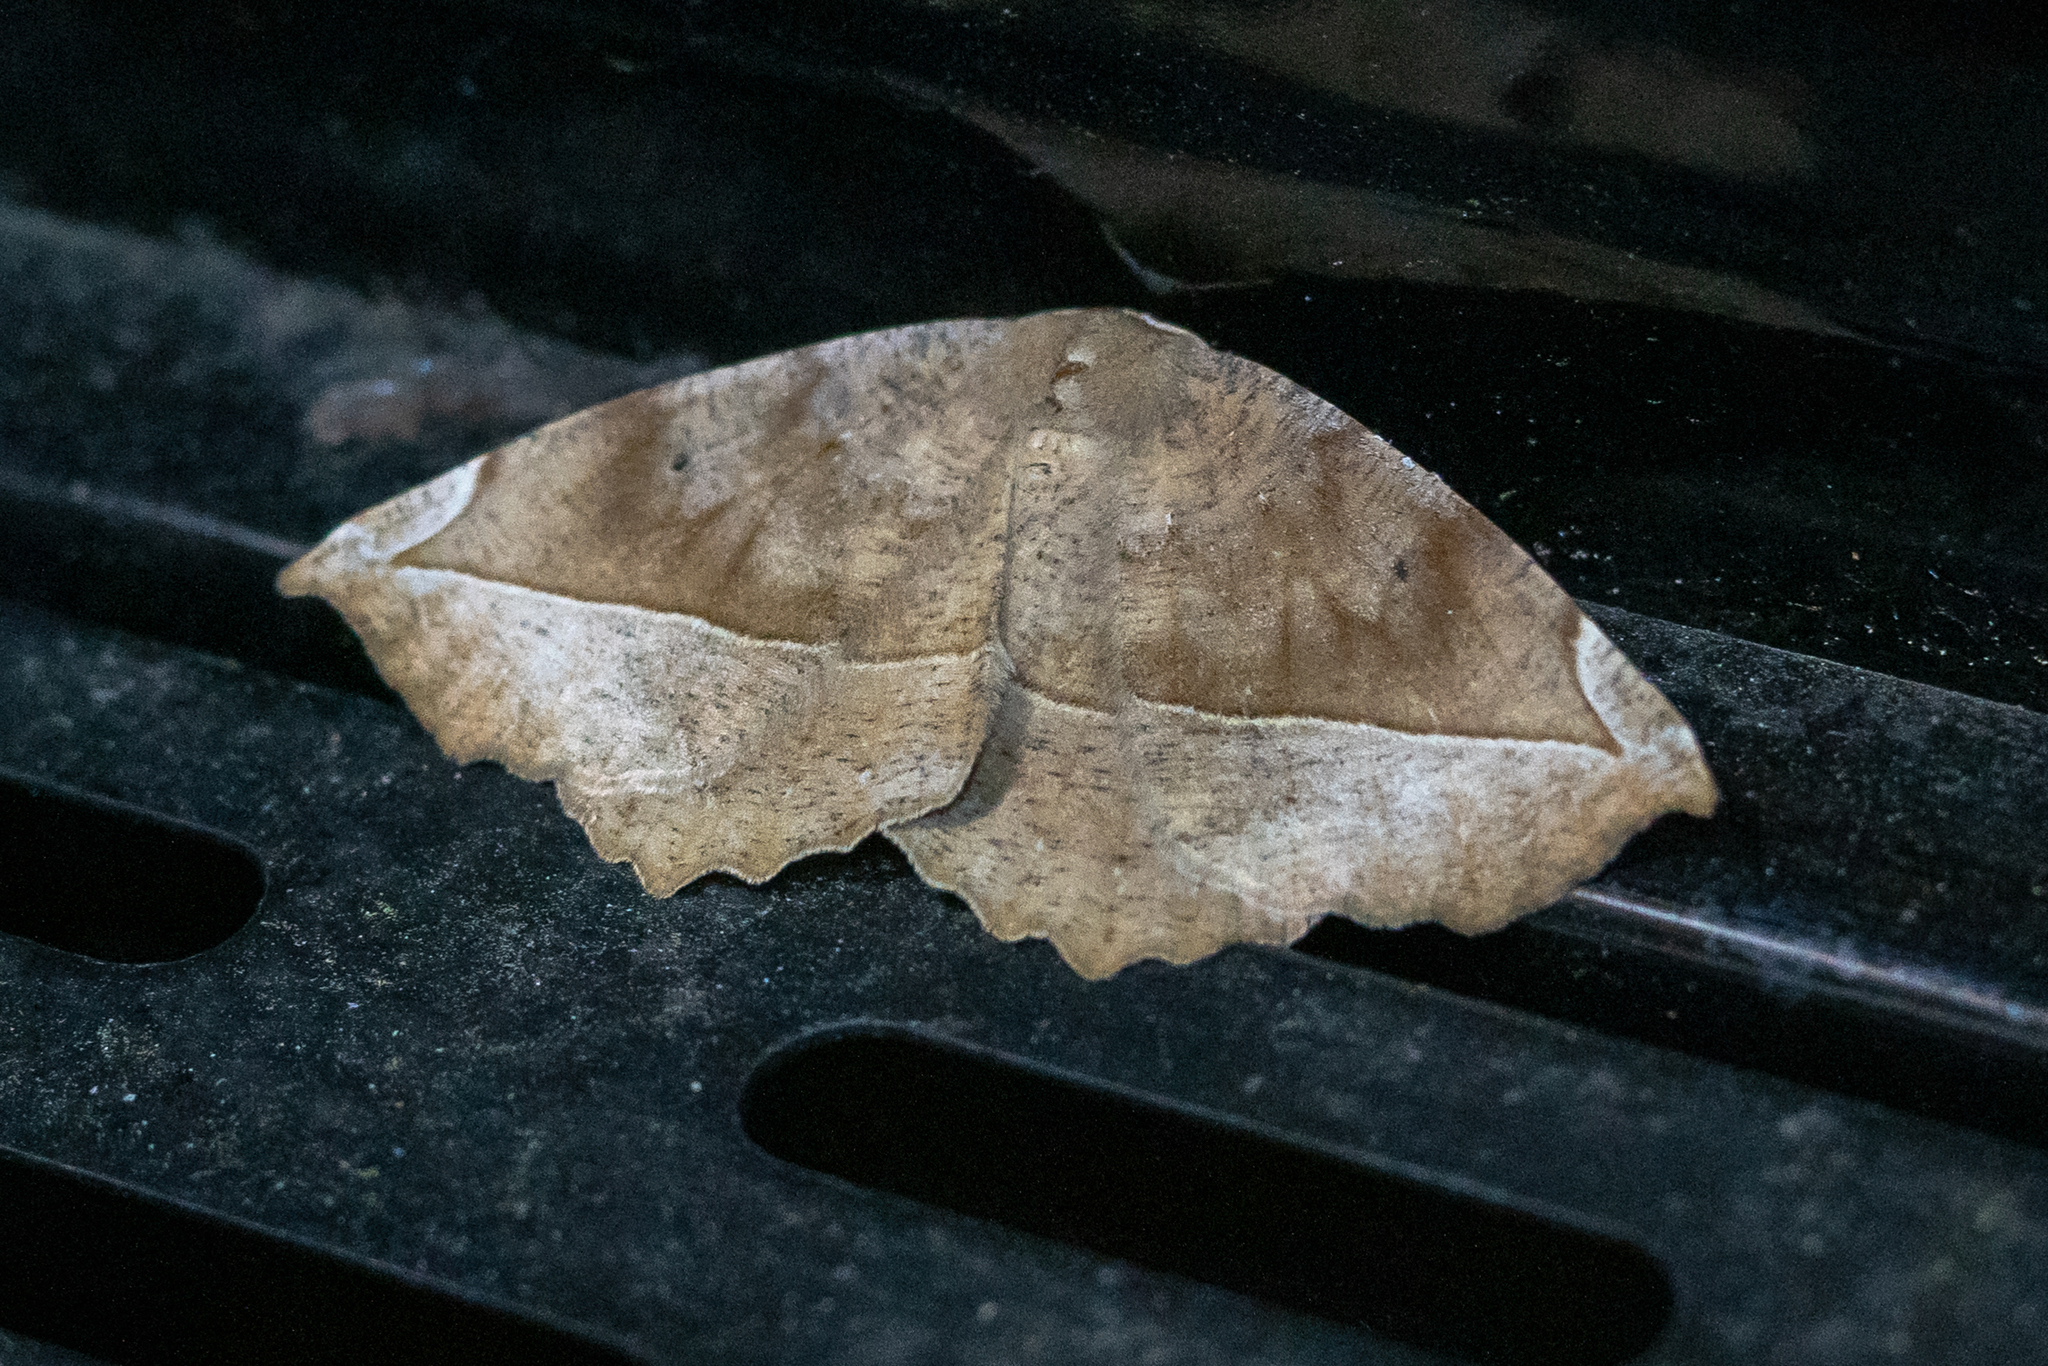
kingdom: Animalia
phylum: Arthropoda
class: Insecta
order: Lepidoptera
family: Geometridae
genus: Eutrapela
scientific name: Eutrapela clemataria
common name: Curved-toothed geometer
